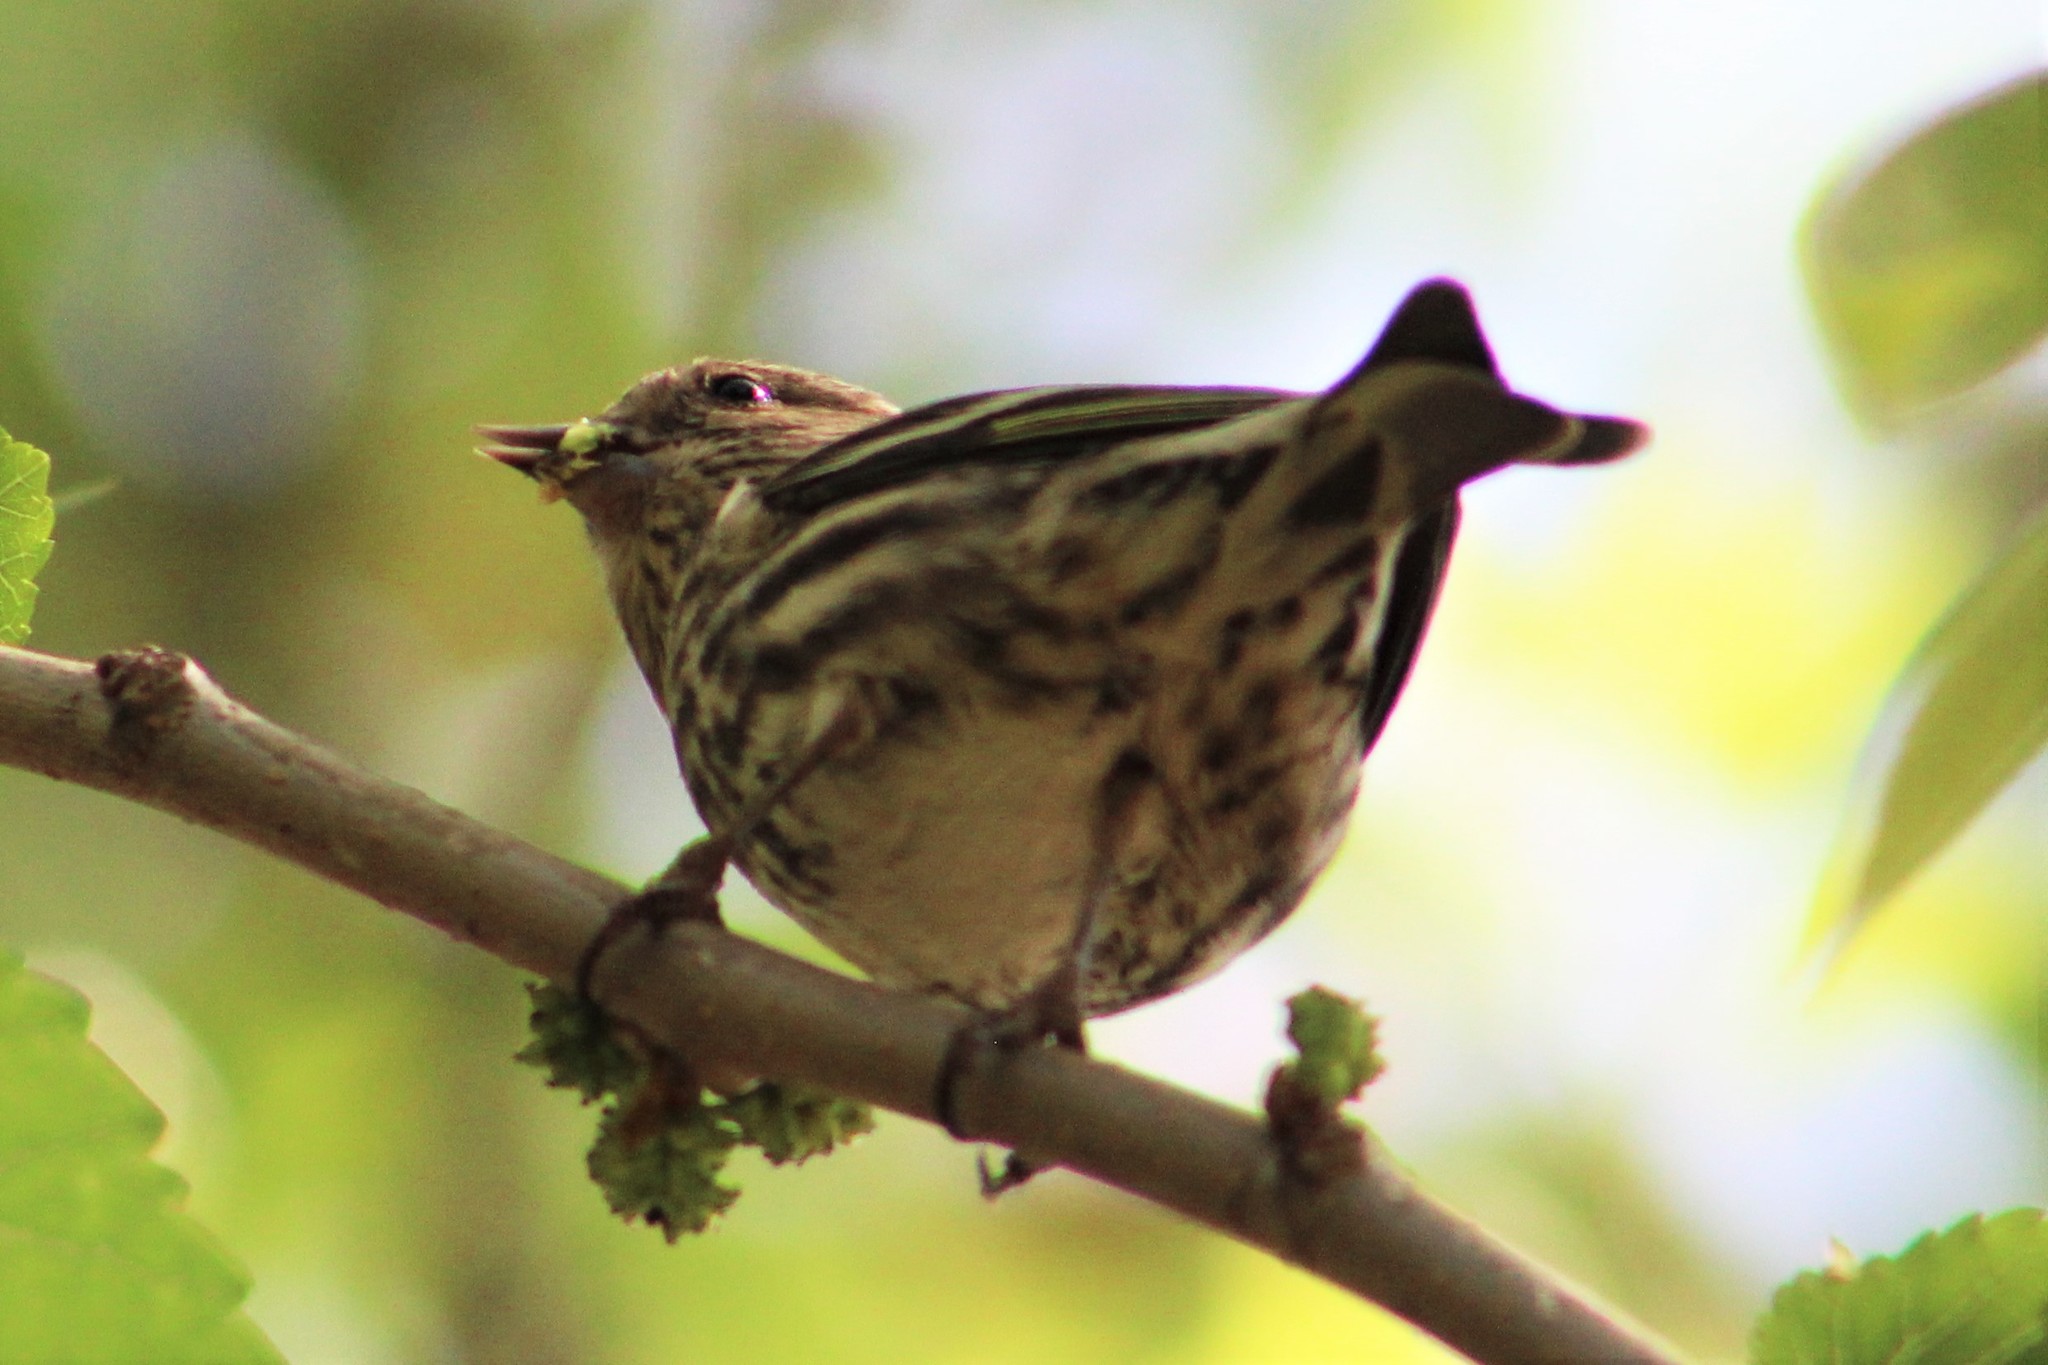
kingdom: Animalia
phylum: Chordata
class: Aves
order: Passeriformes
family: Fringillidae
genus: Spinus
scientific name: Spinus pinus
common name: Pine siskin
